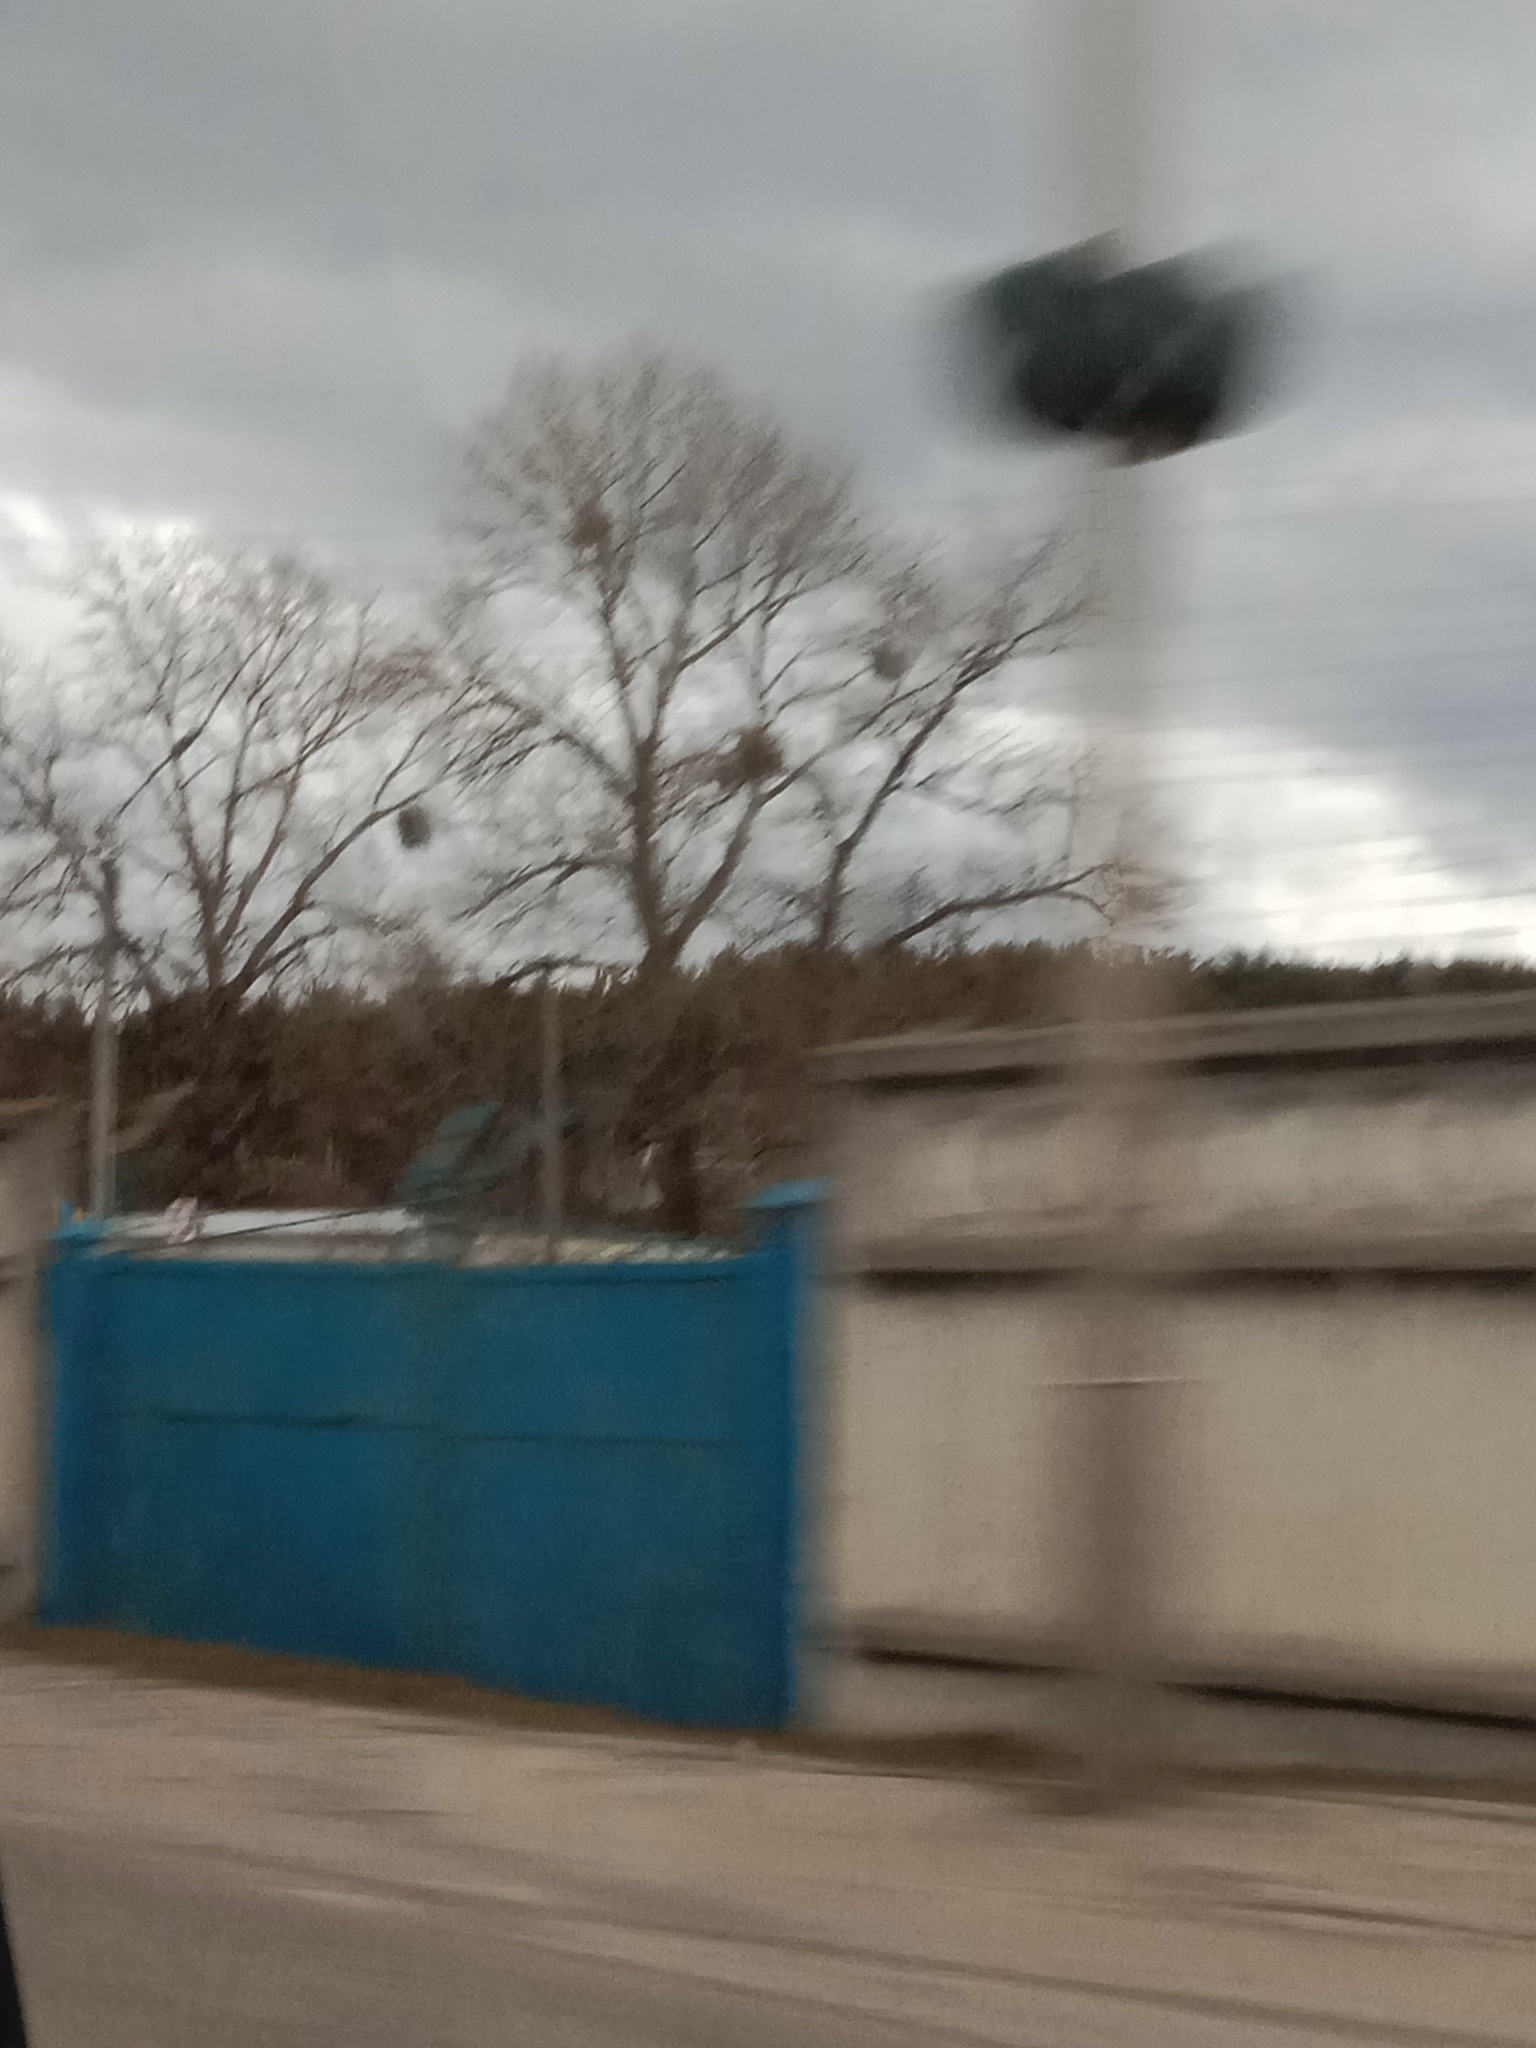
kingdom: Plantae
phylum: Tracheophyta
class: Magnoliopsida
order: Santalales
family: Viscaceae
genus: Viscum
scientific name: Viscum album
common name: Mistletoe
